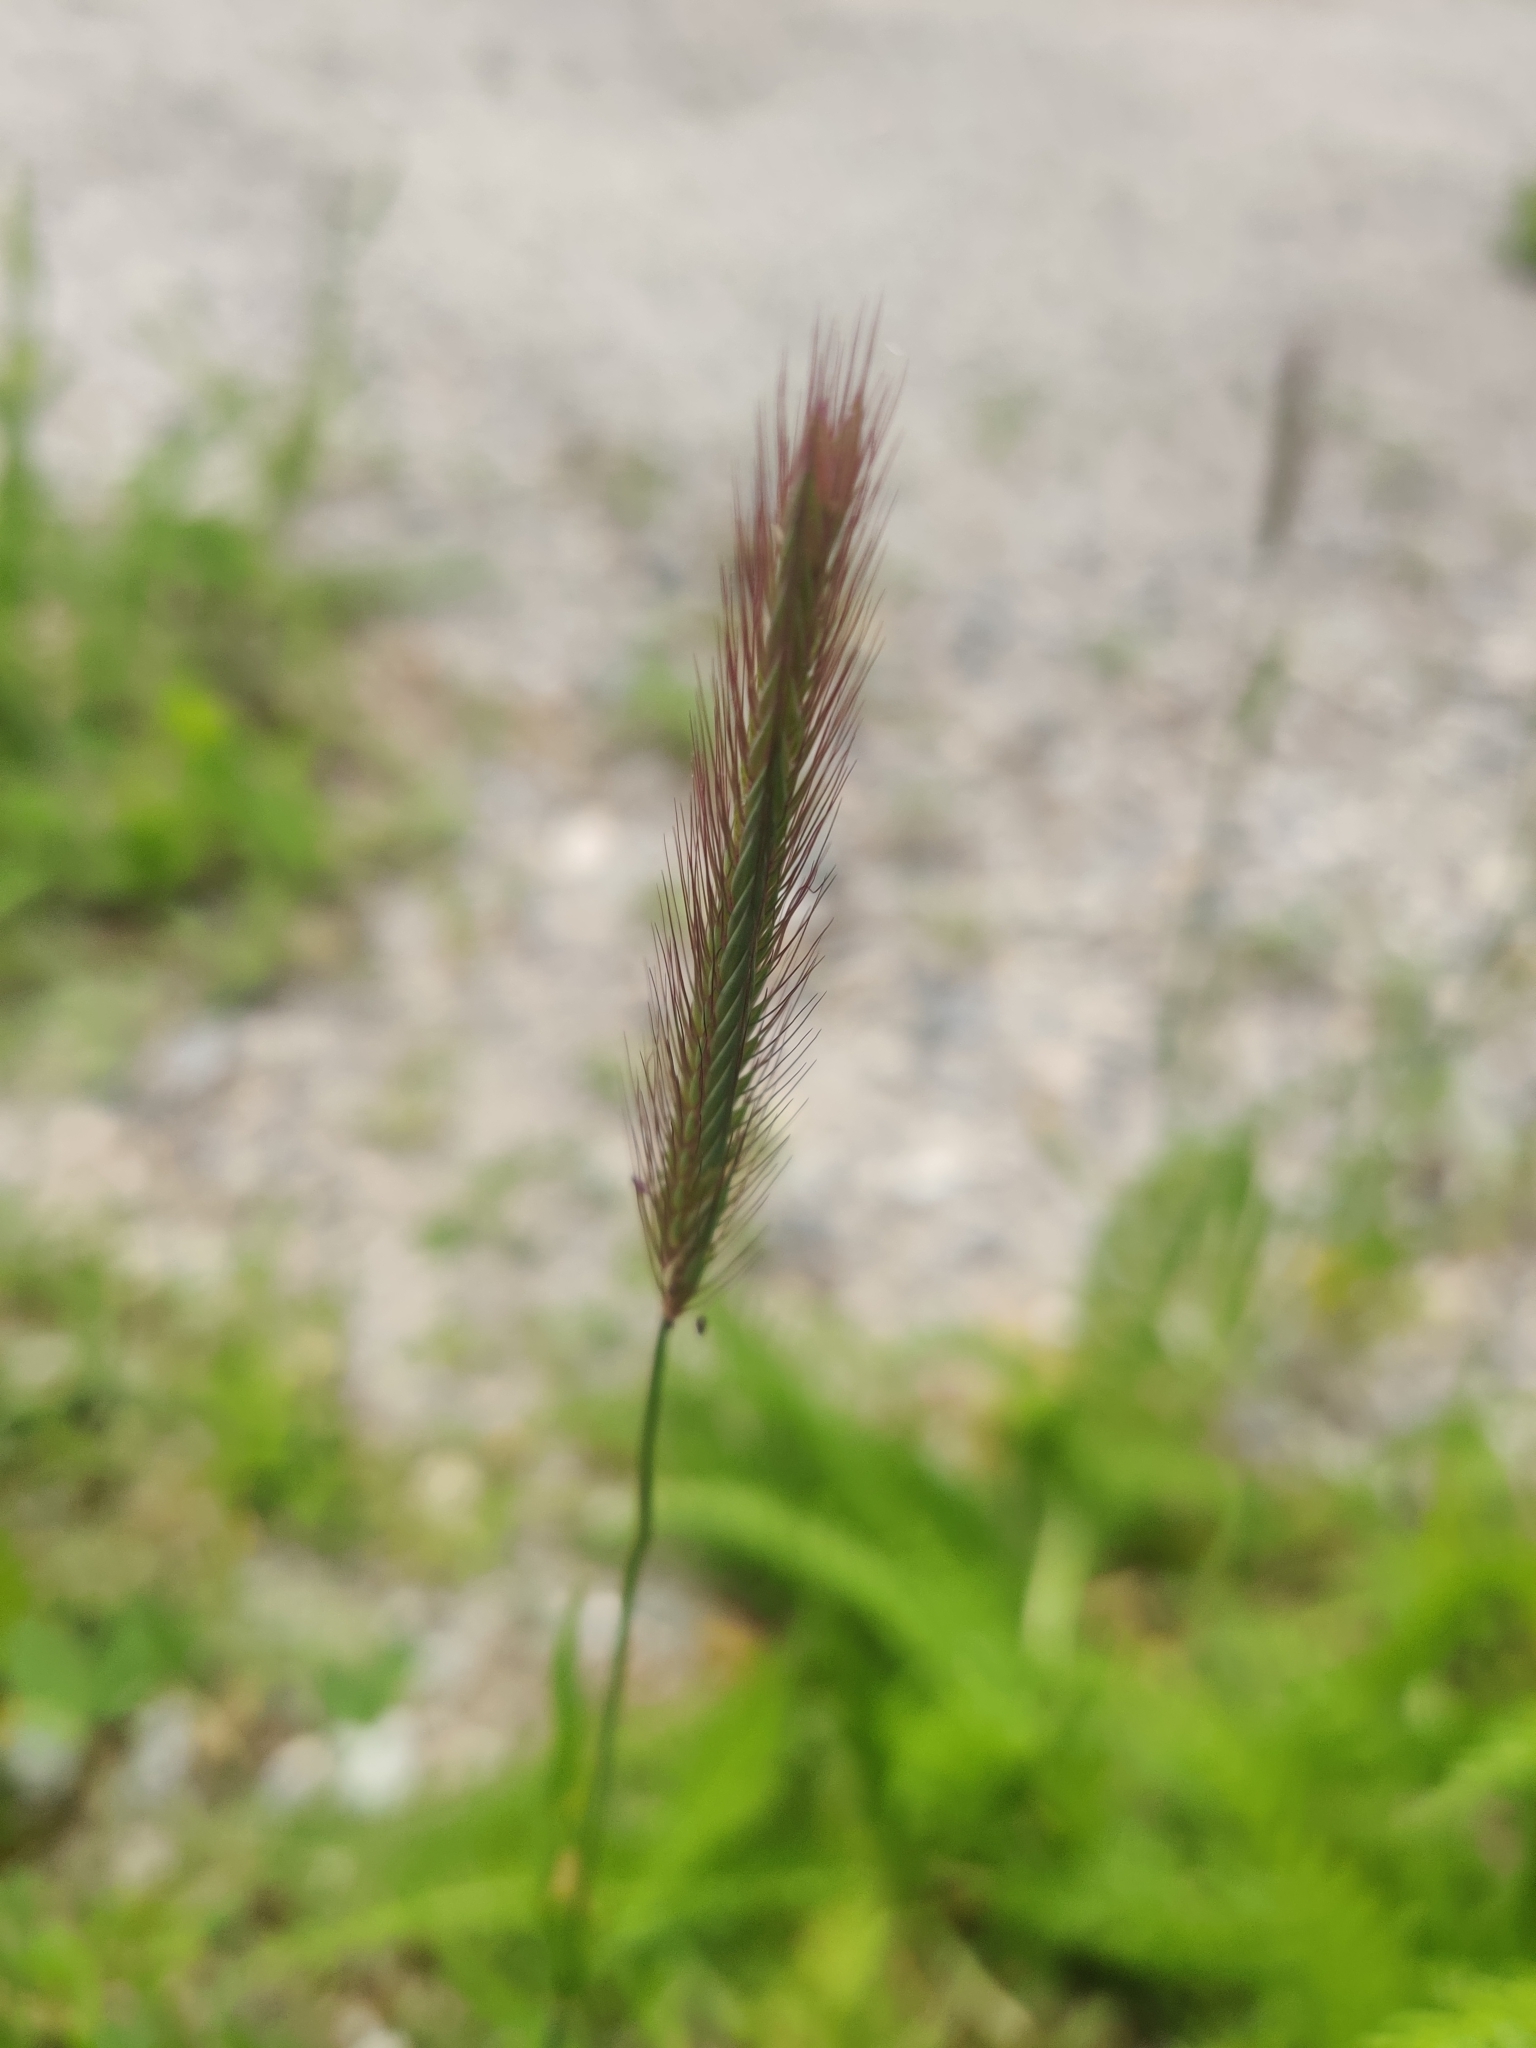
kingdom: Plantae
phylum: Tracheophyta
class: Liliopsida
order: Poales
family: Poaceae
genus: Hordeum
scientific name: Hordeum brachyantherum
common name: Meadow barley
